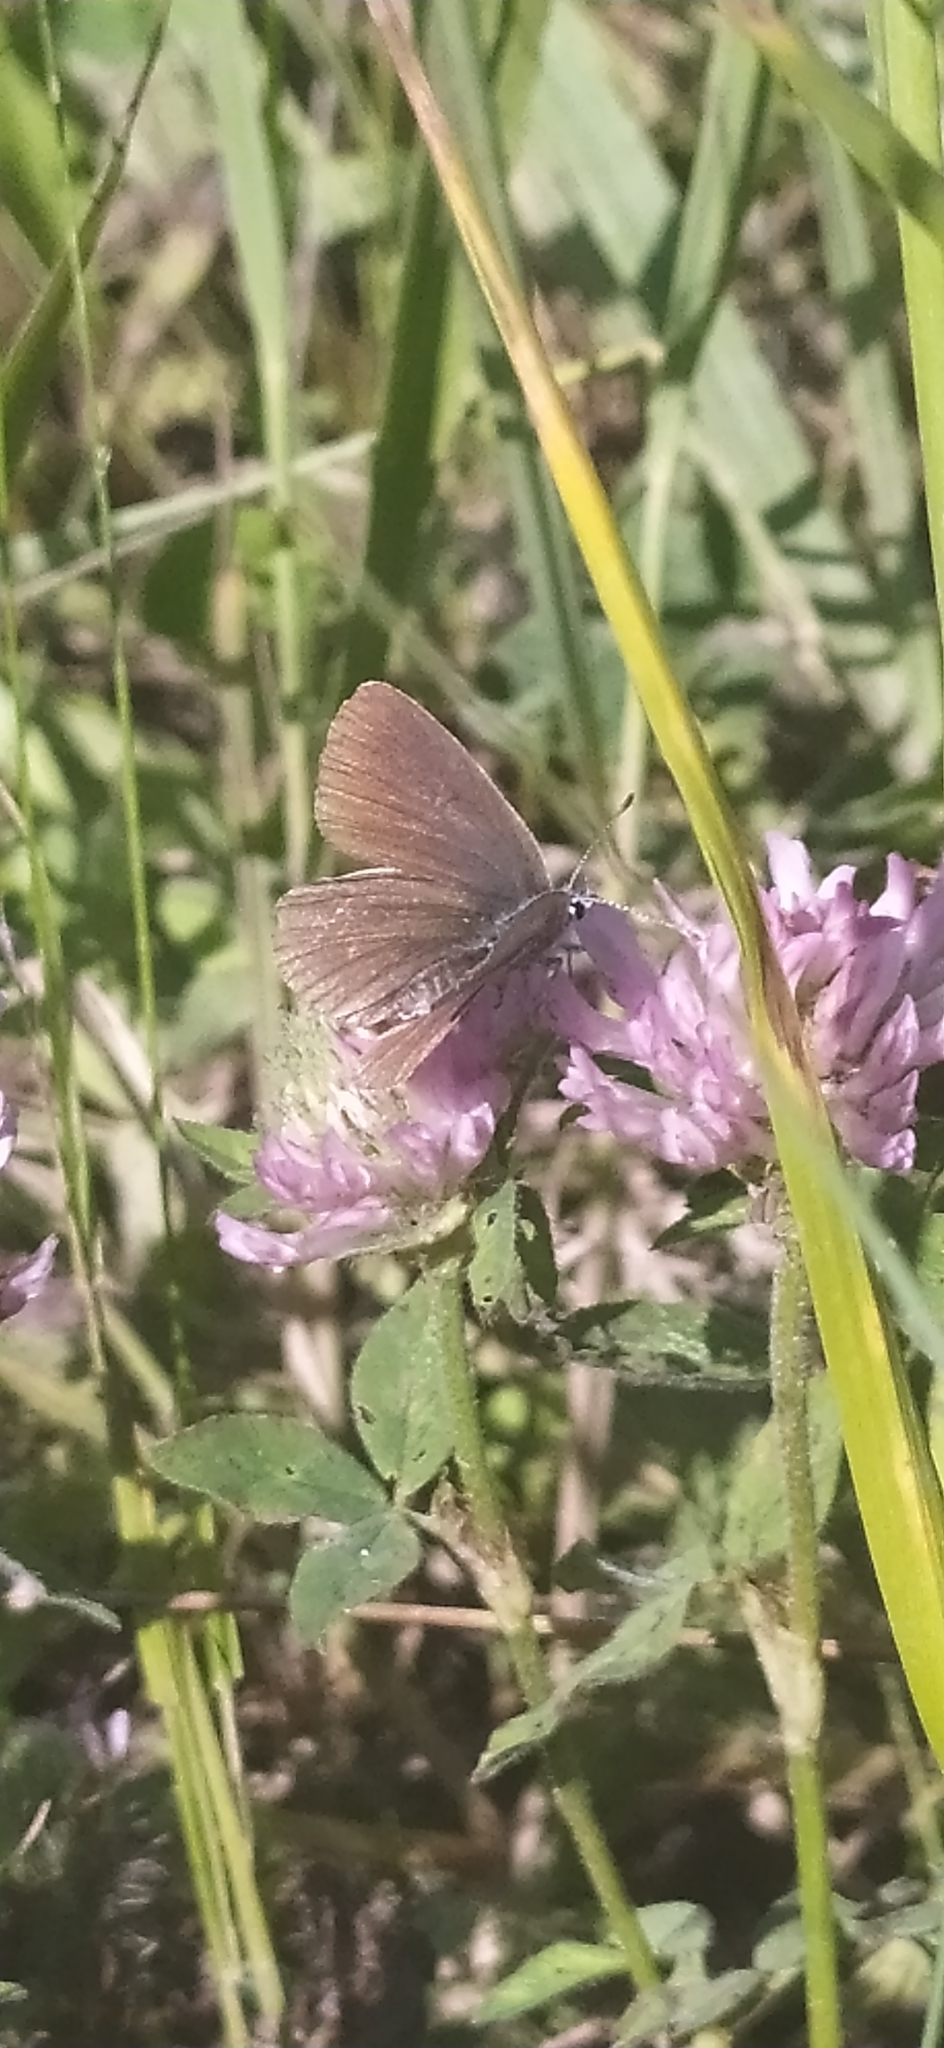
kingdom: Animalia
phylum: Arthropoda
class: Insecta
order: Lepidoptera
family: Lycaenidae
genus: Cyaniris
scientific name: Cyaniris semiargus
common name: Mazarine blue
